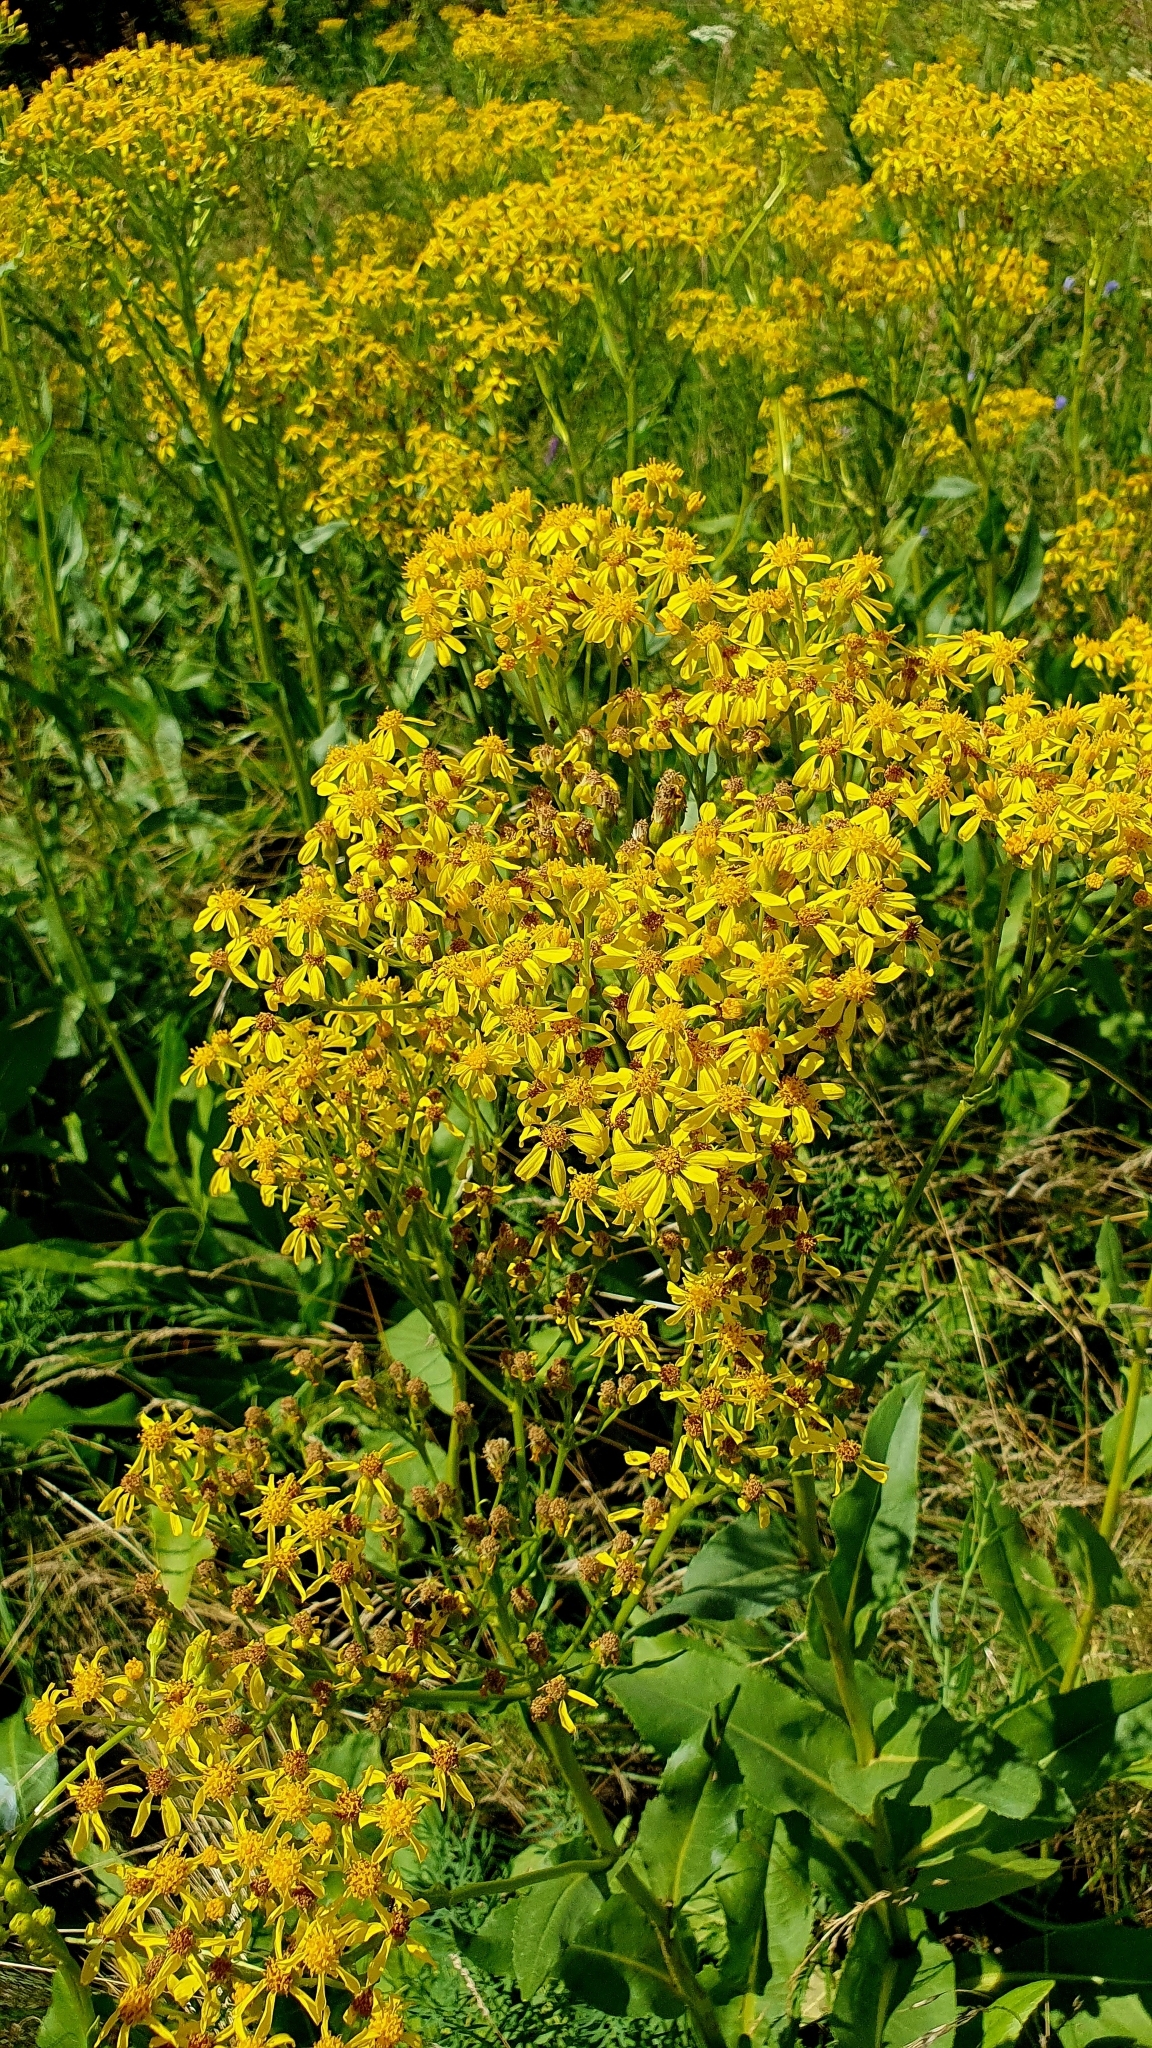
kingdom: Plantae
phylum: Tracheophyta
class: Magnoliopsida
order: Asterales
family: Asteraceae
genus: Senecio
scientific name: Senecio doria
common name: Golden ragwort
